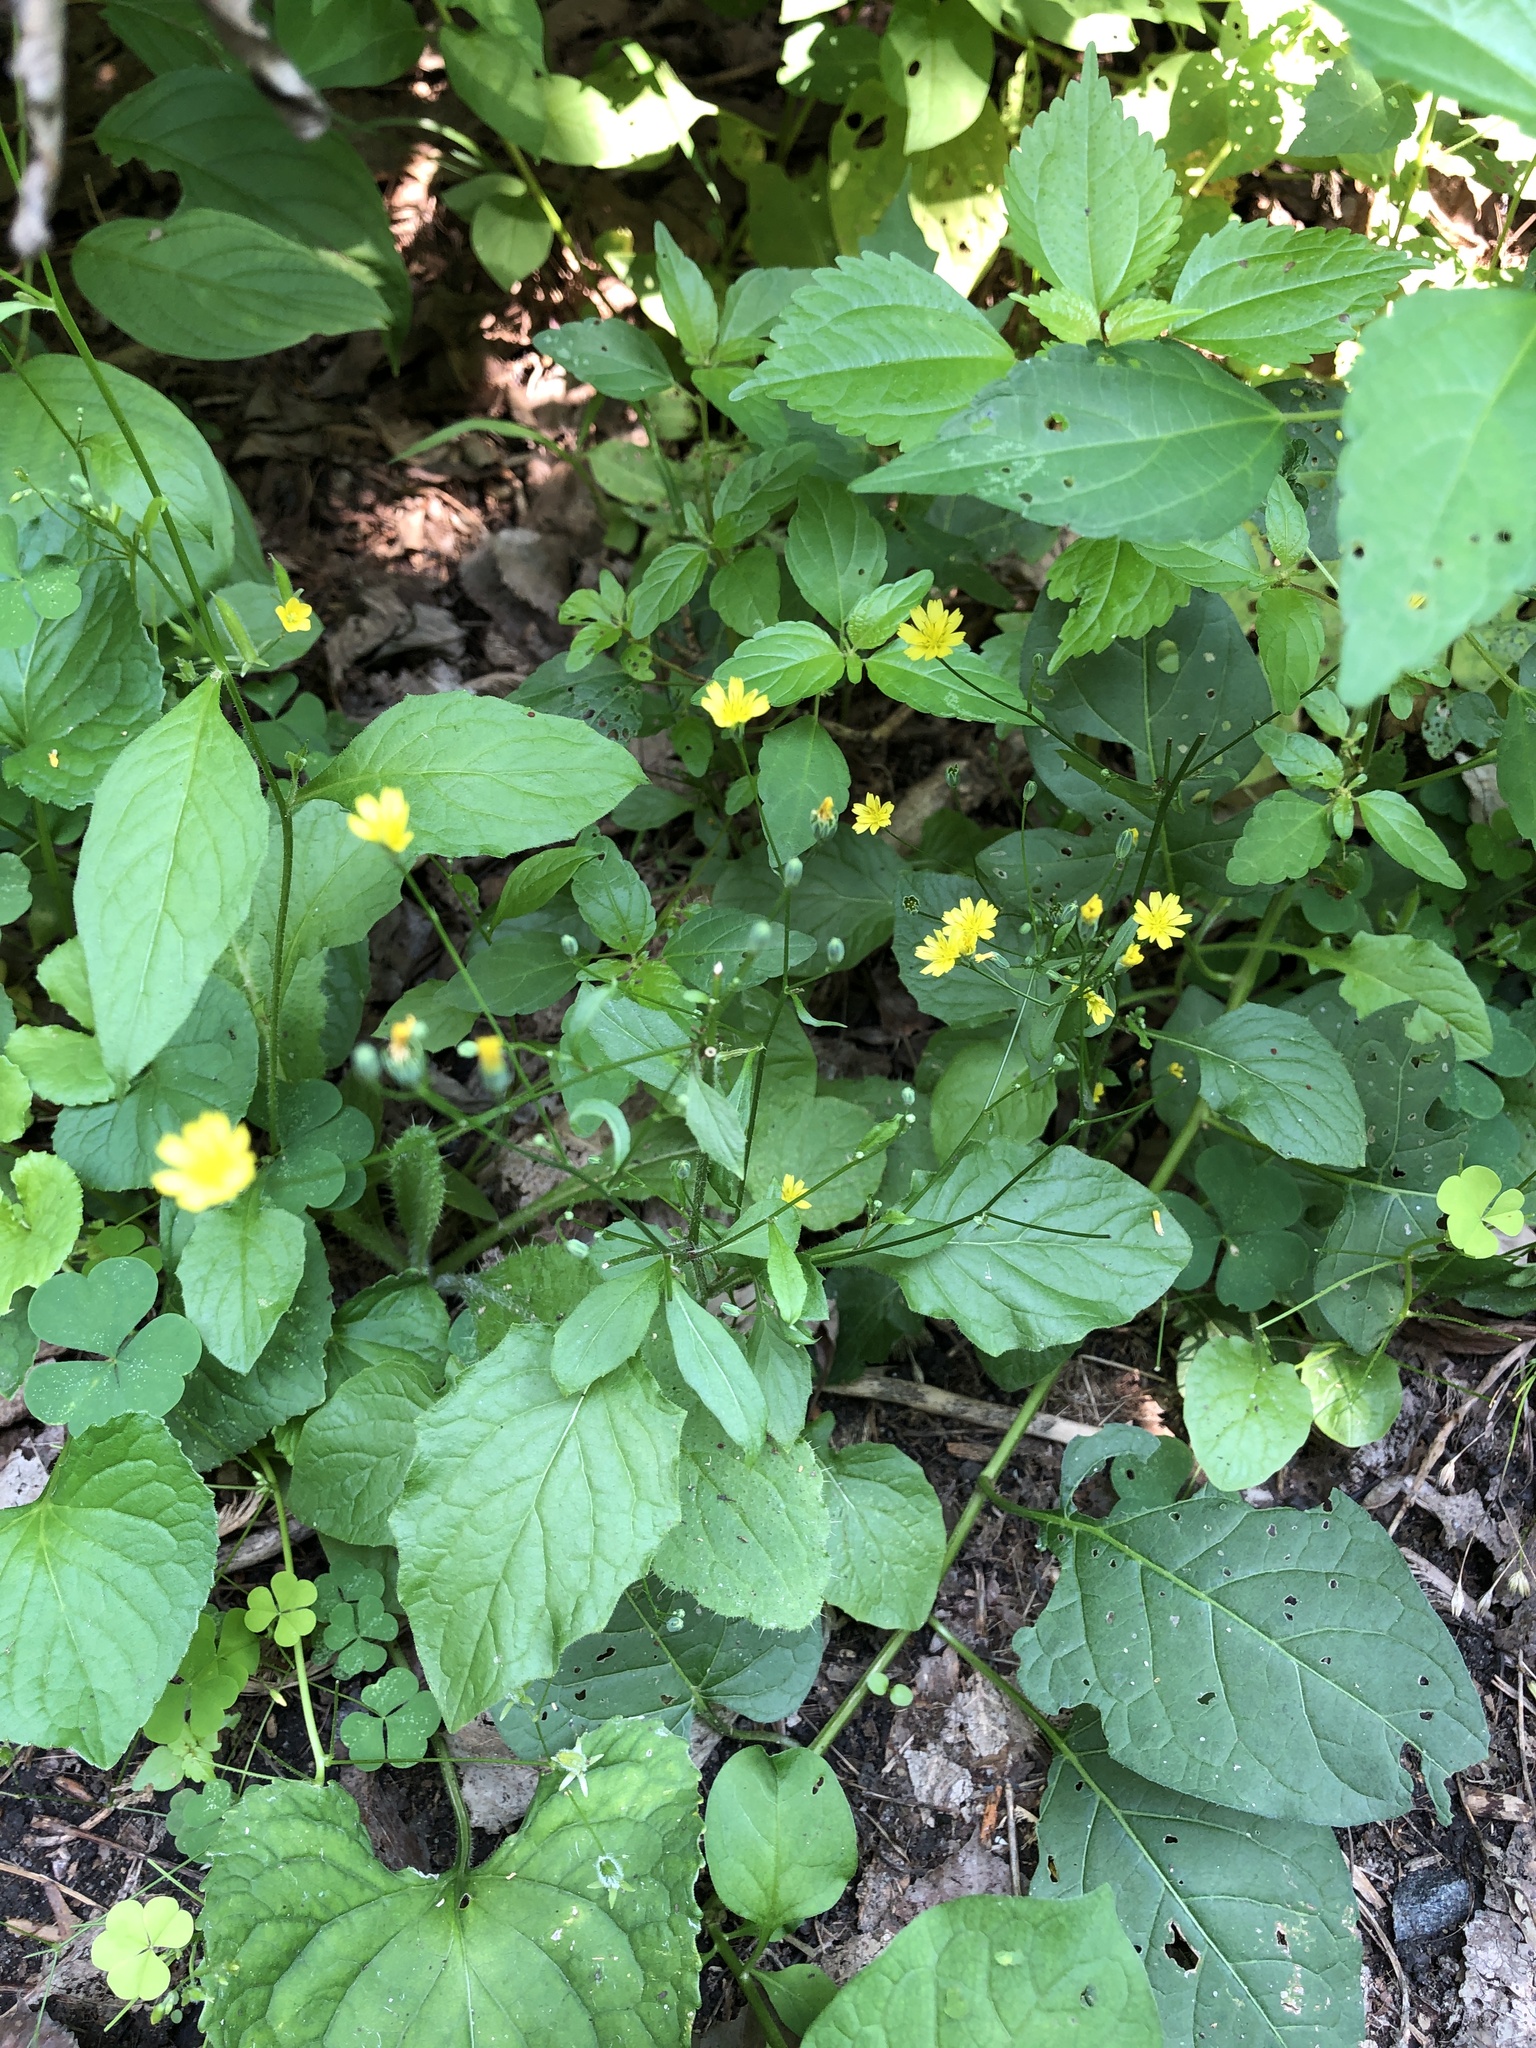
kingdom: Plantae
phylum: Tracheophyta
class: Magnoliopsida
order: Asterales
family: Asteraceae
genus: Lapsana
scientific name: Lapsana communis
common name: Nipplewort
